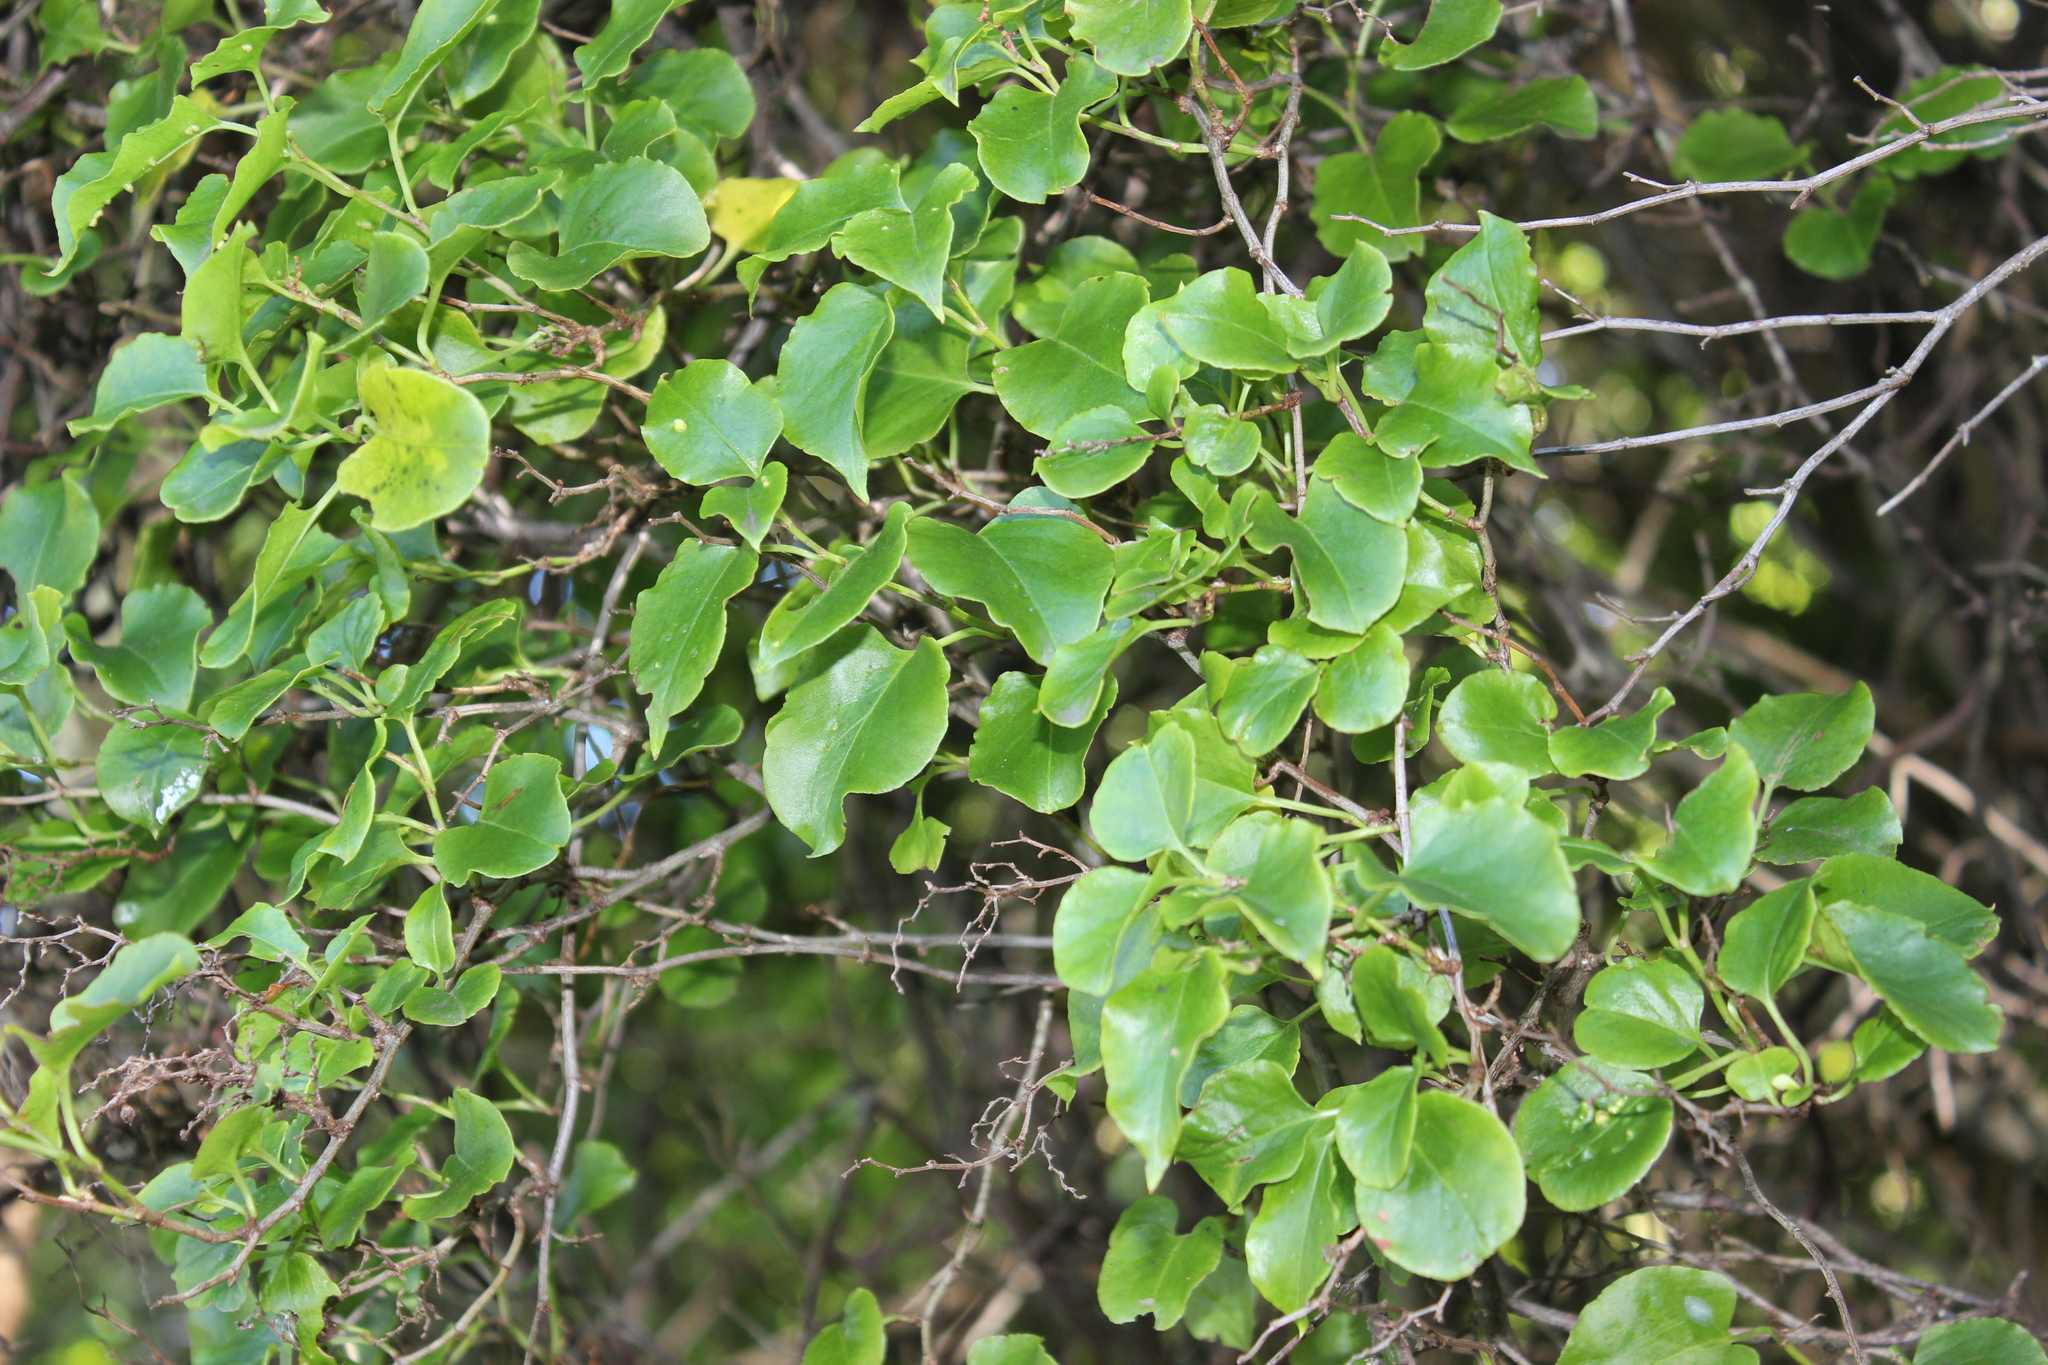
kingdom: Plantae
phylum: Tracheophyta
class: Magnoliopsida
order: Caryophyllales
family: Polygonaceae
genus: Muehlenbeckia
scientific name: Muehlenbeckia australis
